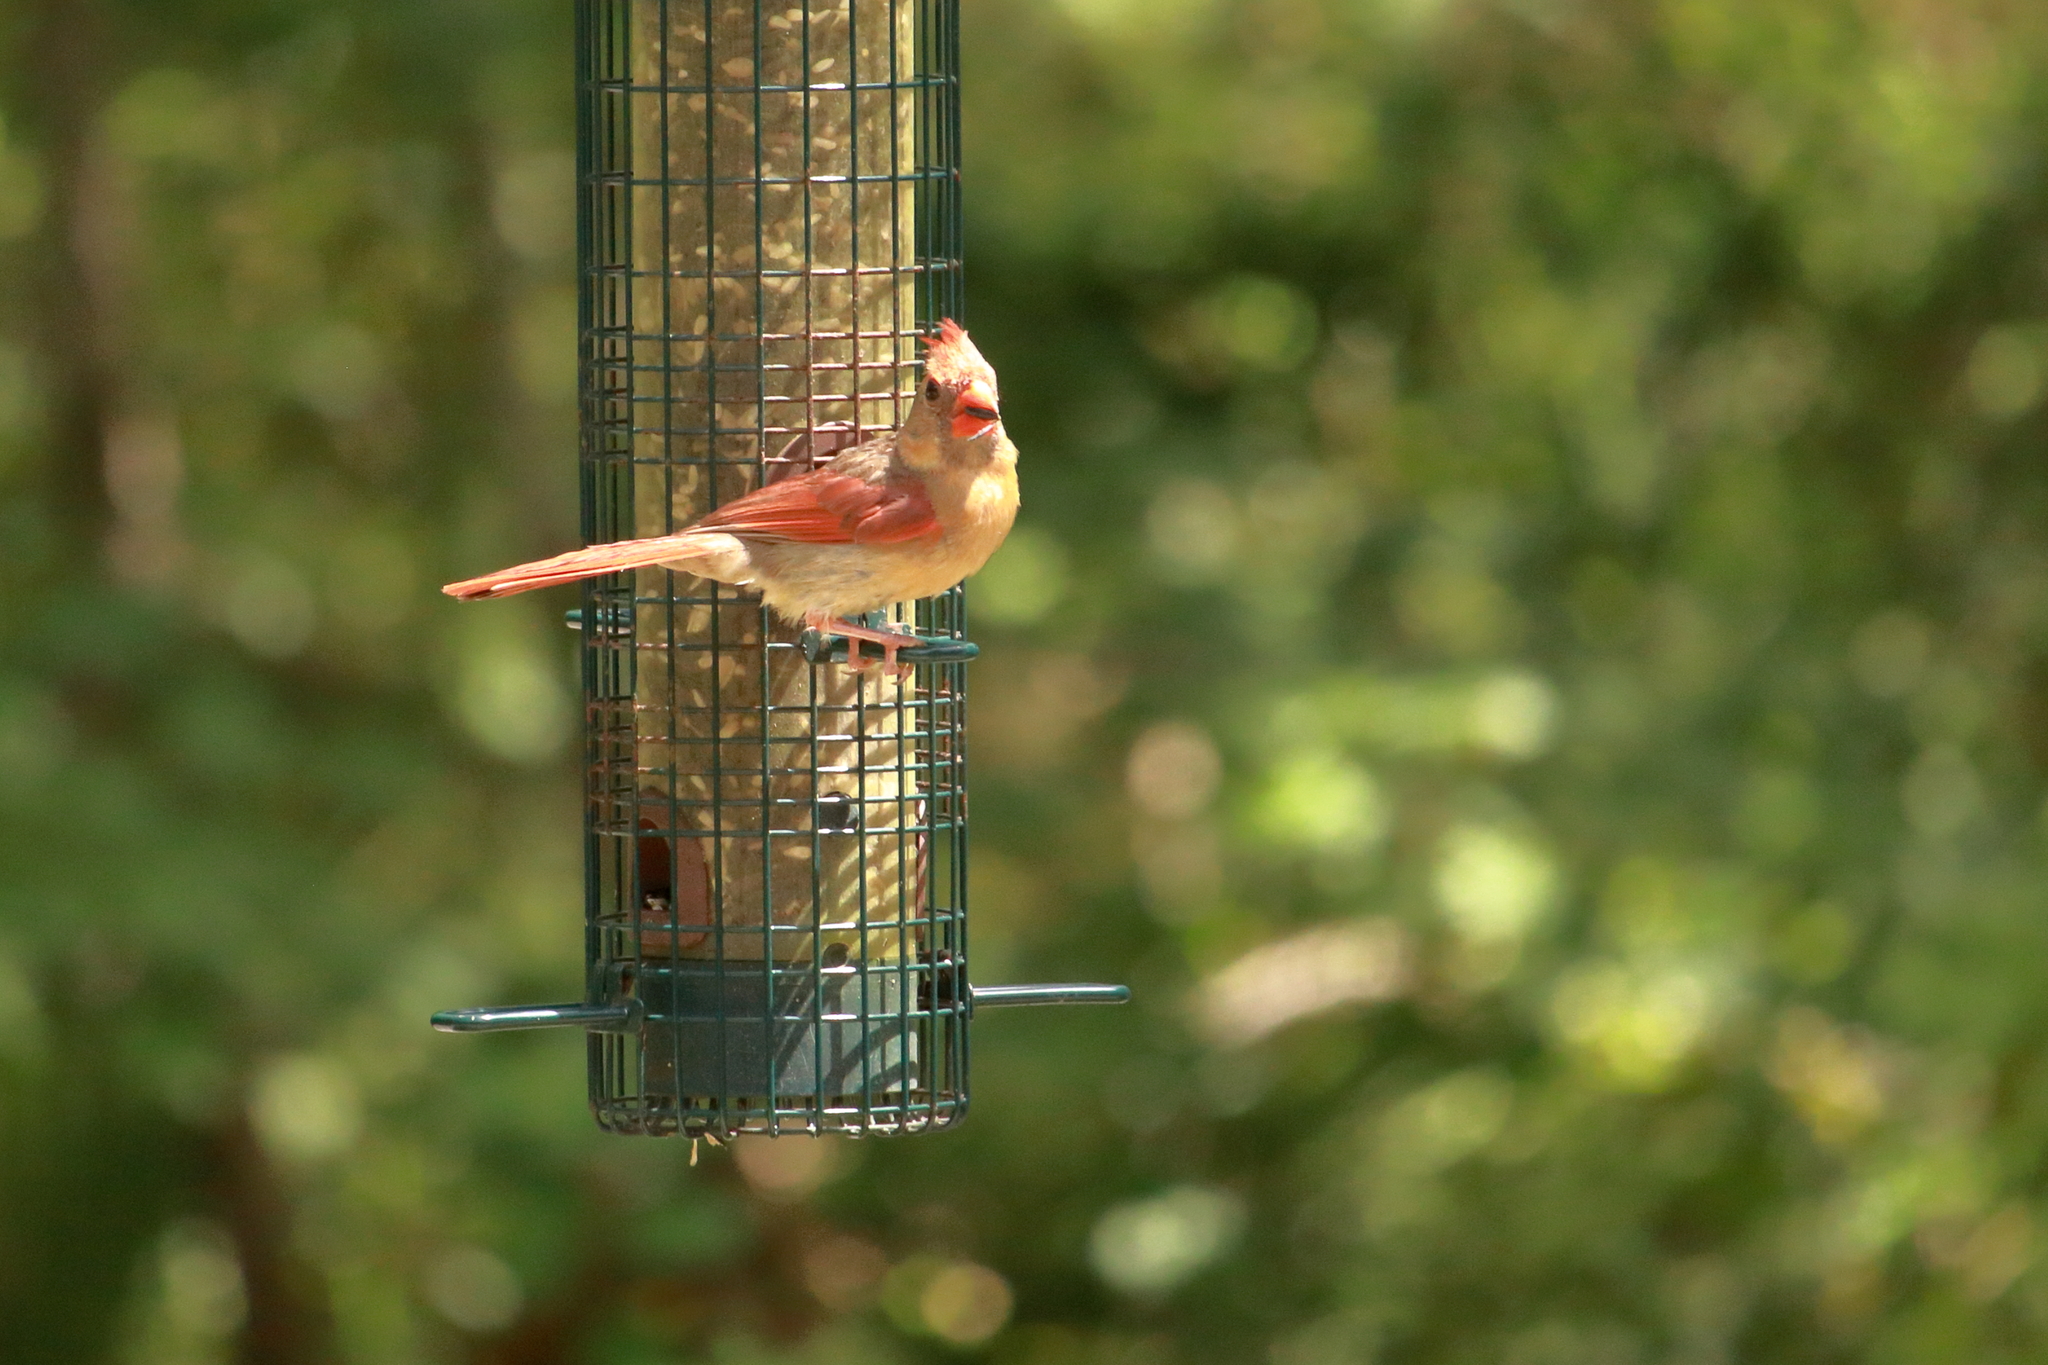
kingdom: Animalia
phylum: Chordata
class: Aves
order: Passeriformes
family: Cardinalidae
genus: Cardinalis
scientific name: Cardinalis cardinalis
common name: Northern cardinal
